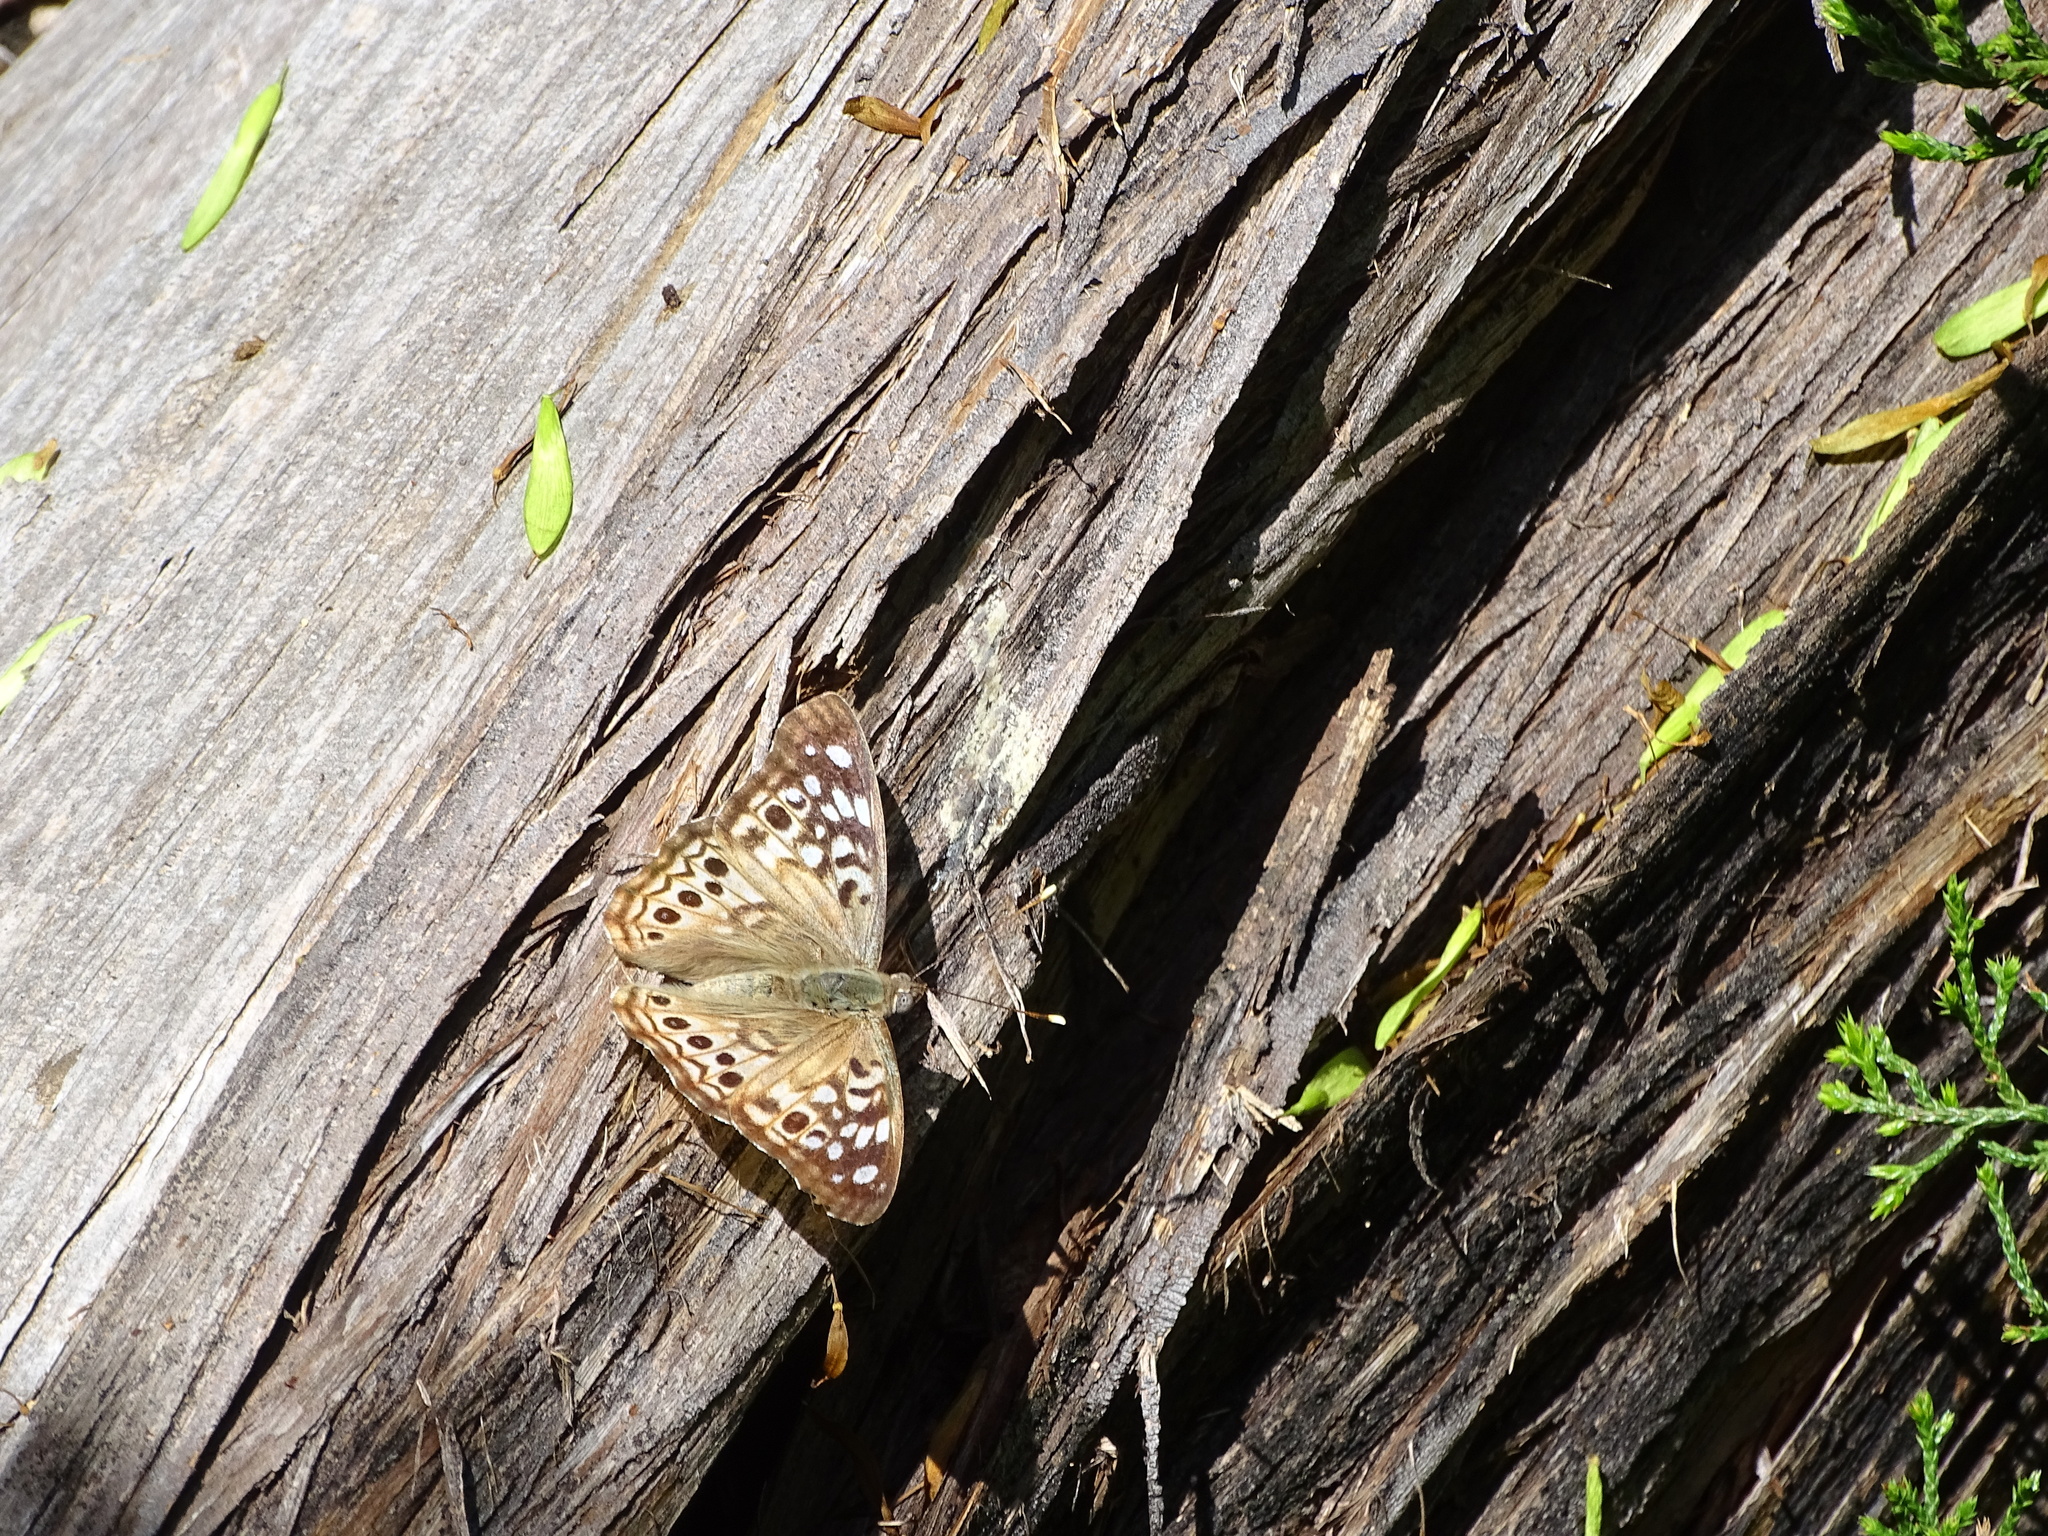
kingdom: Animalia
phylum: Arthropoda
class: Insecta
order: Lepidoptera
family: Nymphalidae
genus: Asterocampa
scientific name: Asterocampa celtis
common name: Hackberry emperor
